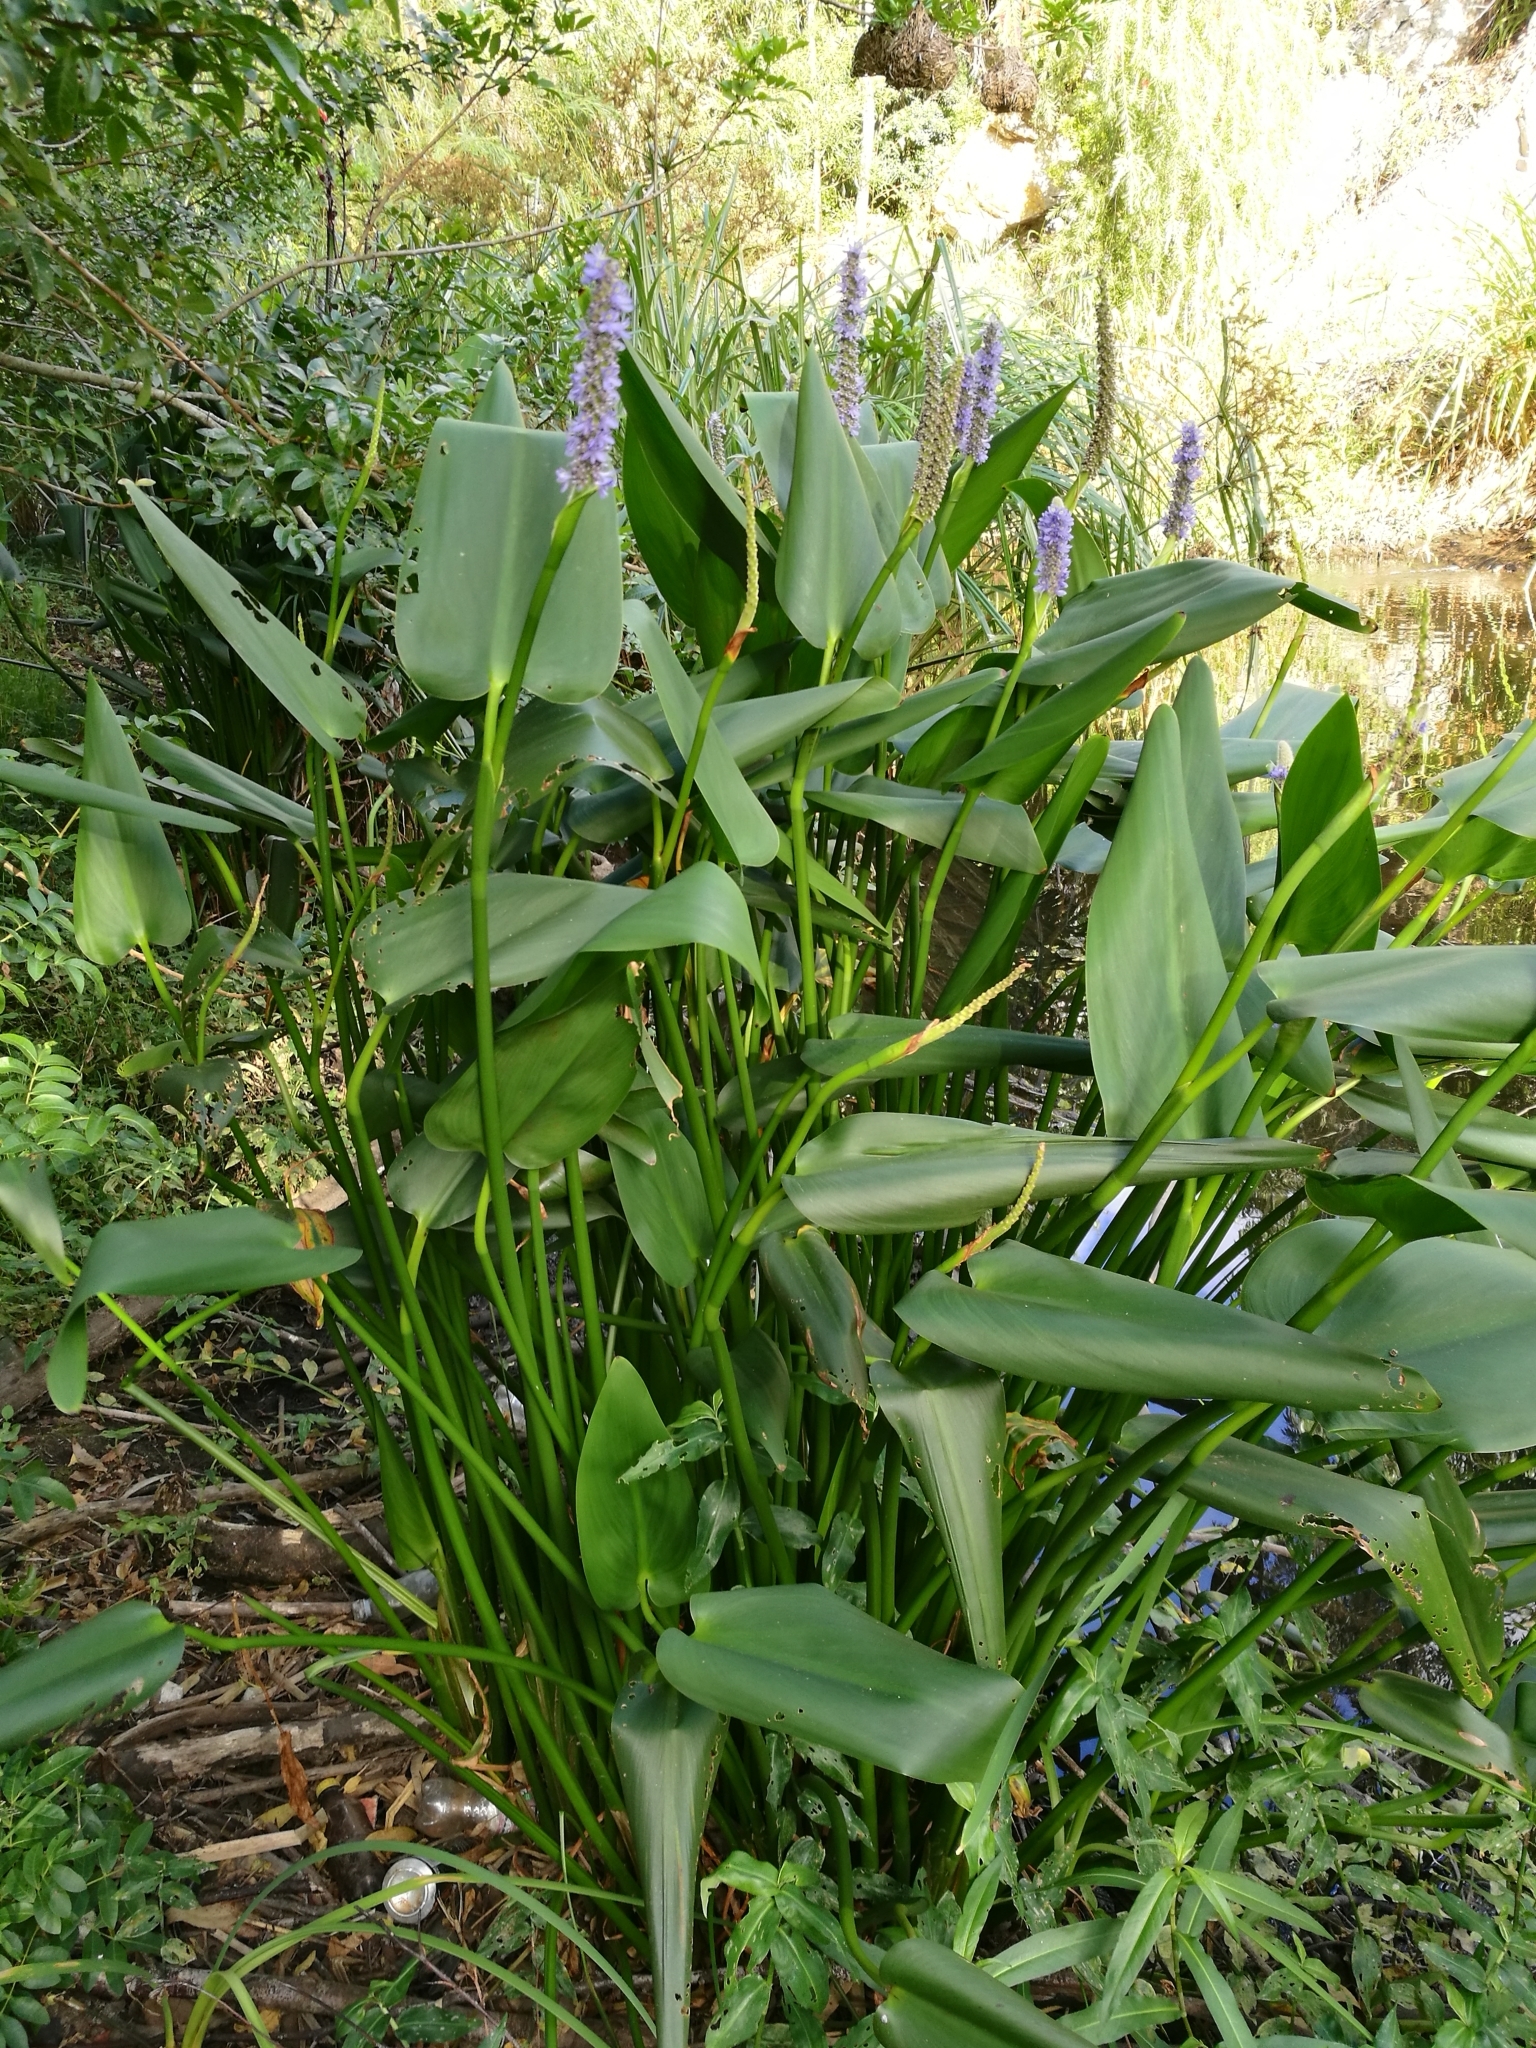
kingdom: Plantae
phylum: Tracheophyta
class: Liliopsida
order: Commelinales
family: Pontederiaceae
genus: Pontederia
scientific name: Pontederia cordata
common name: Pickerelweed
